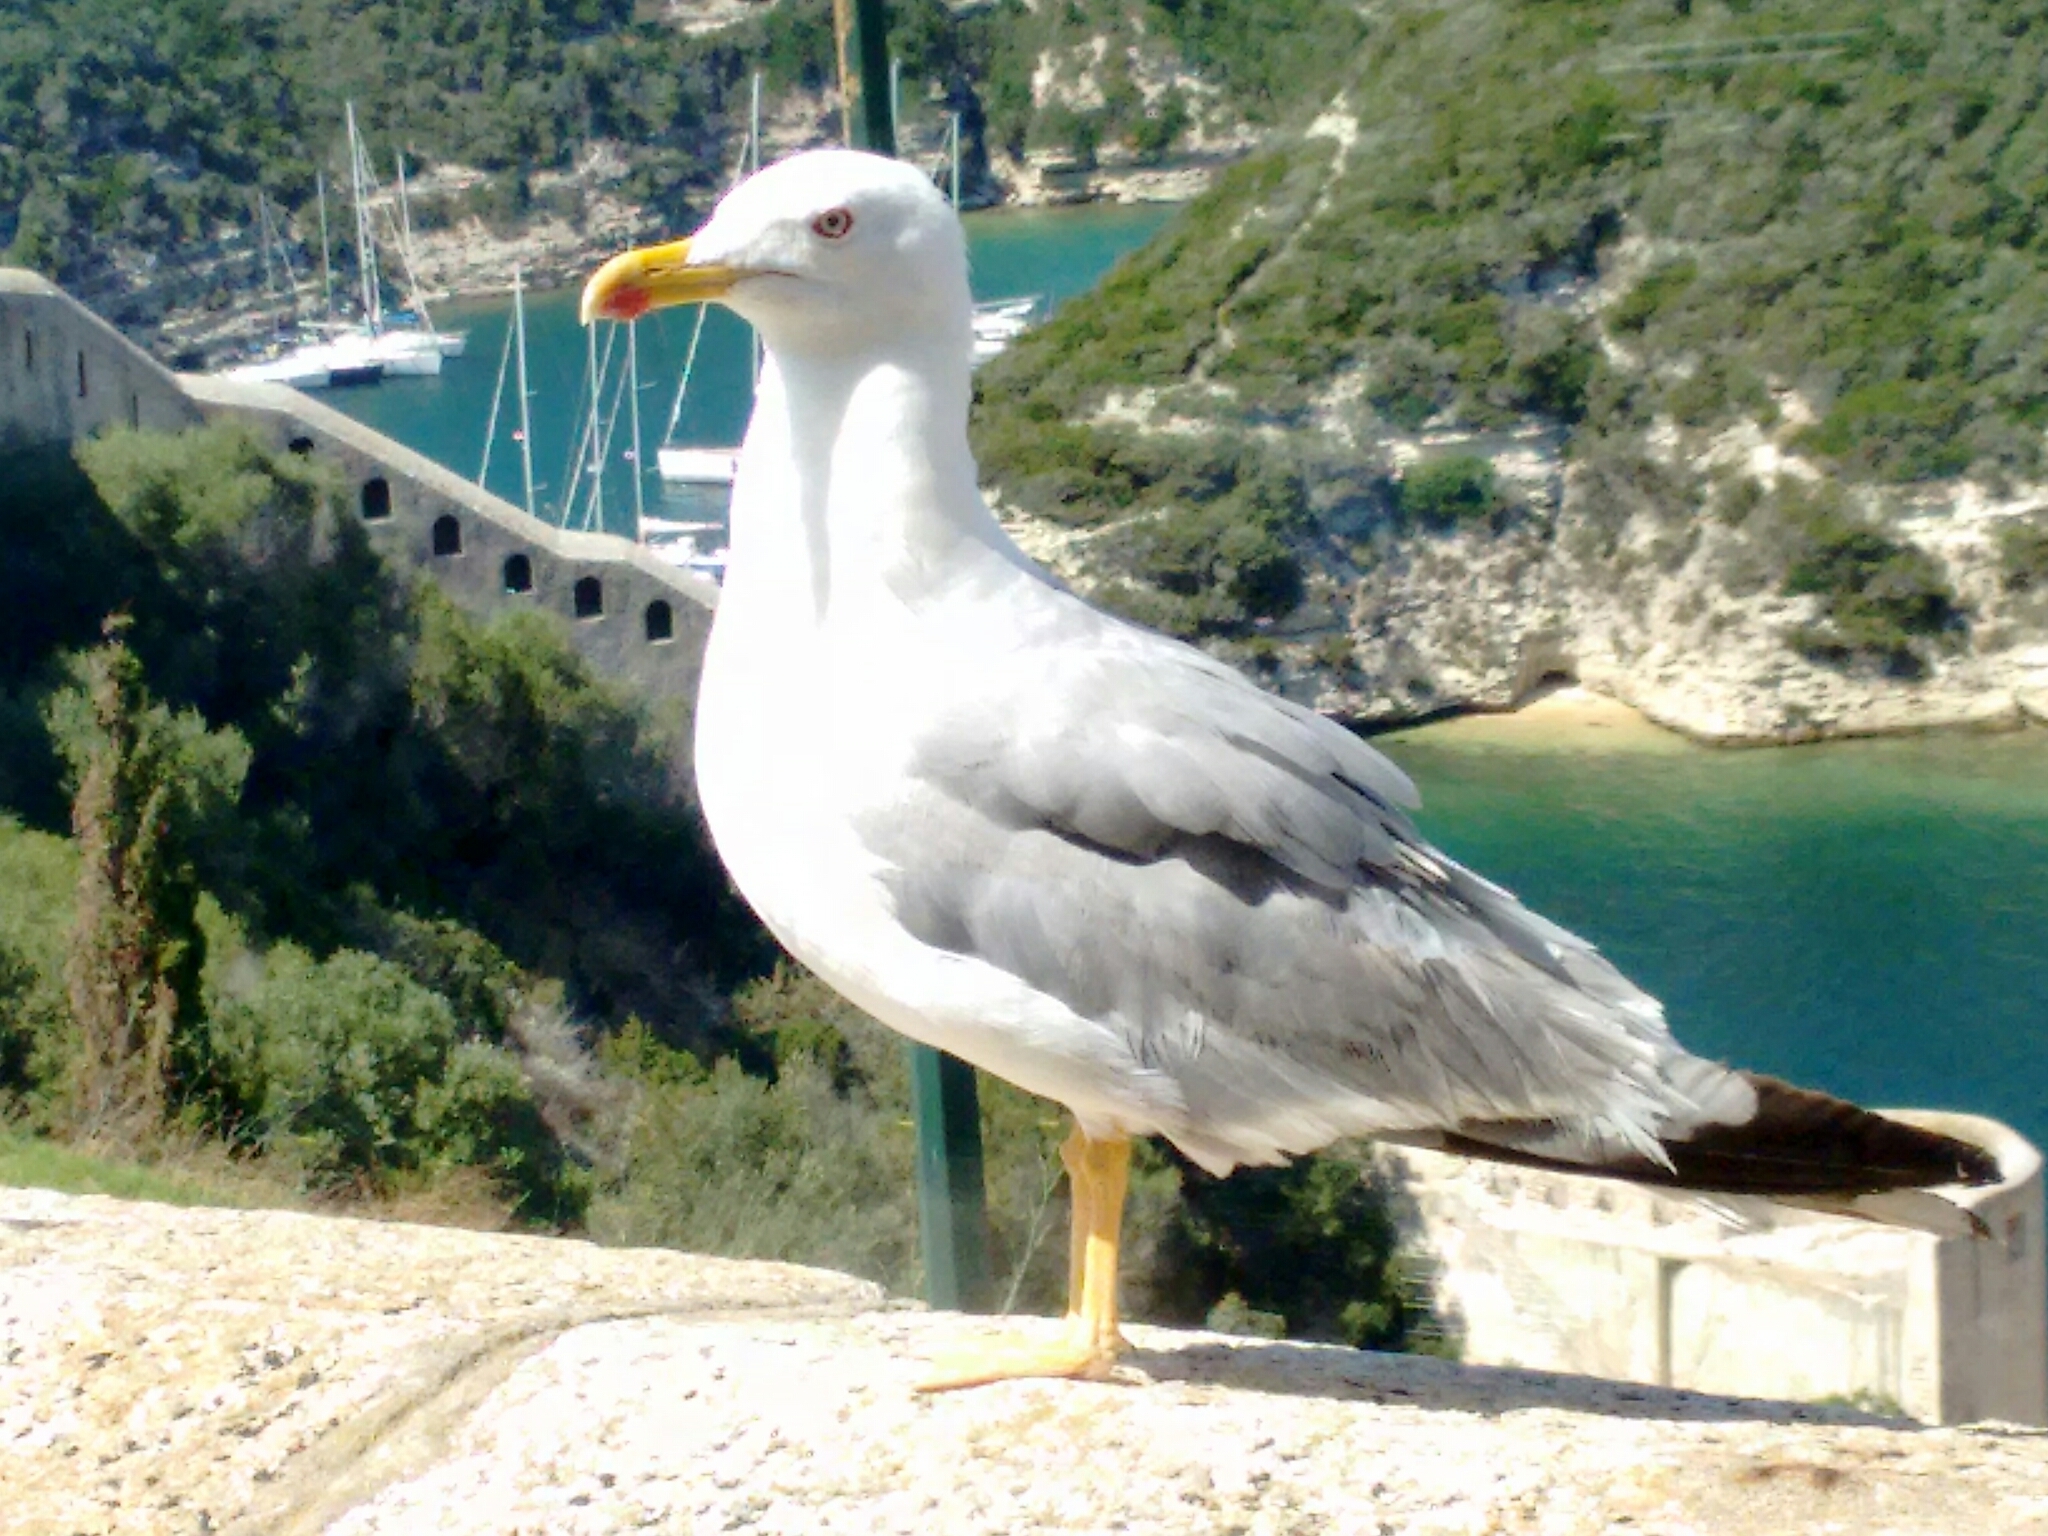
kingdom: Animalia
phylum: Chordata
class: Aves
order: Charadriiformes
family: Laridae
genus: Larus
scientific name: Larus michahellis
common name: Yellow-legged gull
